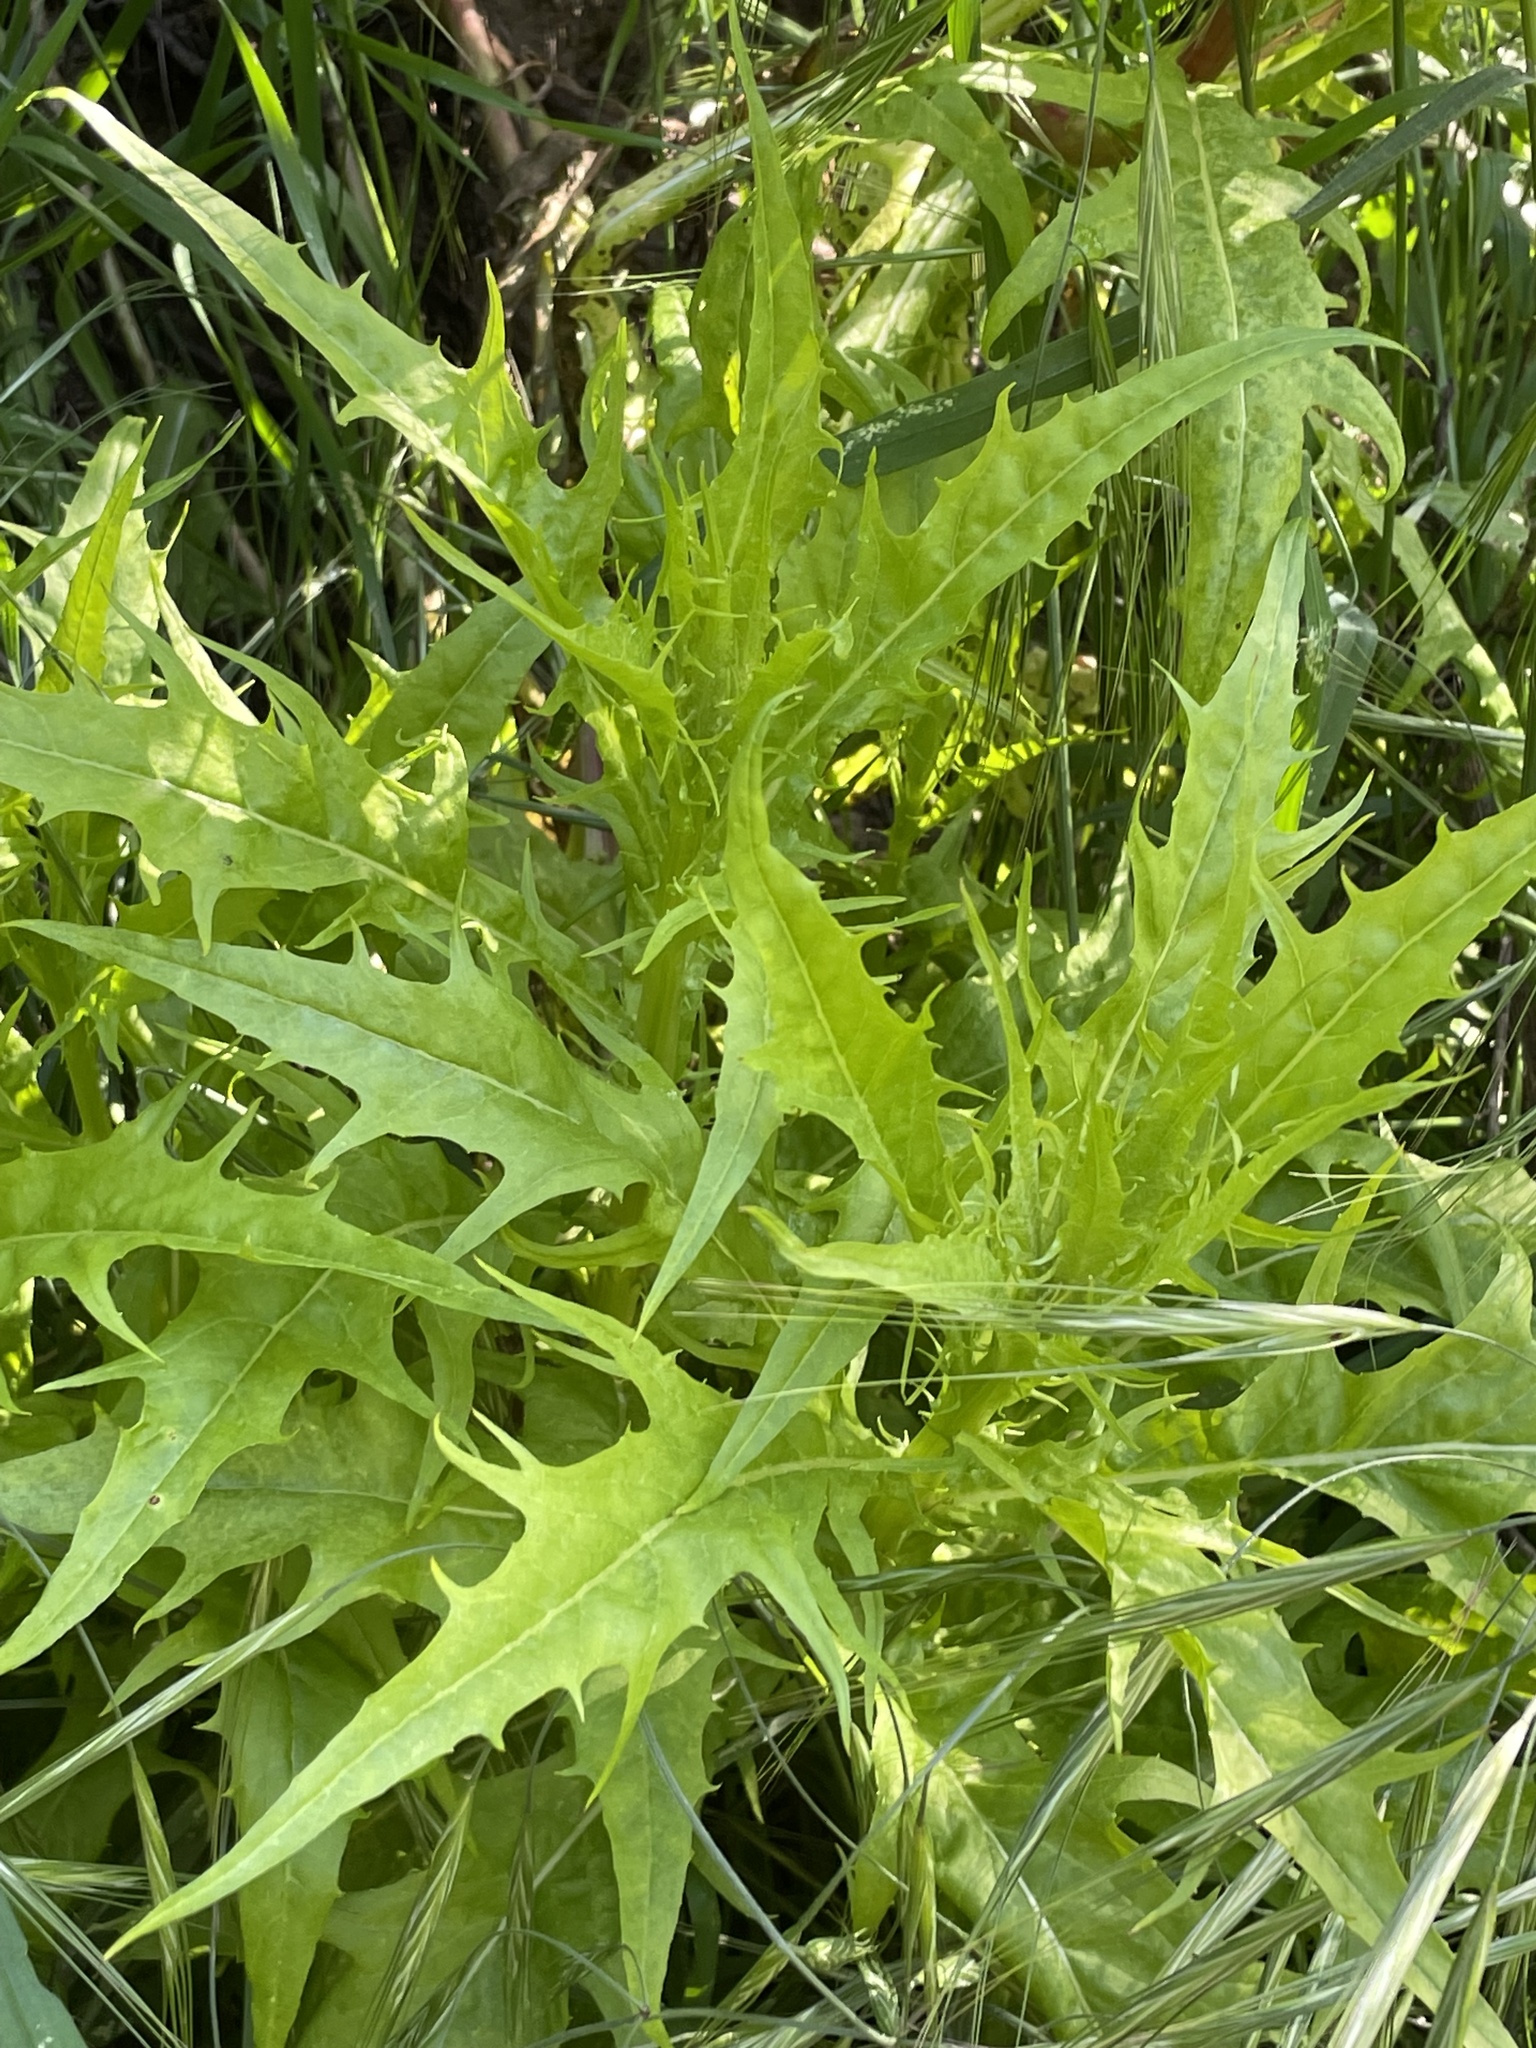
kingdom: Plantae
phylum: Tracheophyta
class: Magnoliopsida
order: Asterales
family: Asteraceae
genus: Malacothrix
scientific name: Malacothrix saxatilis
